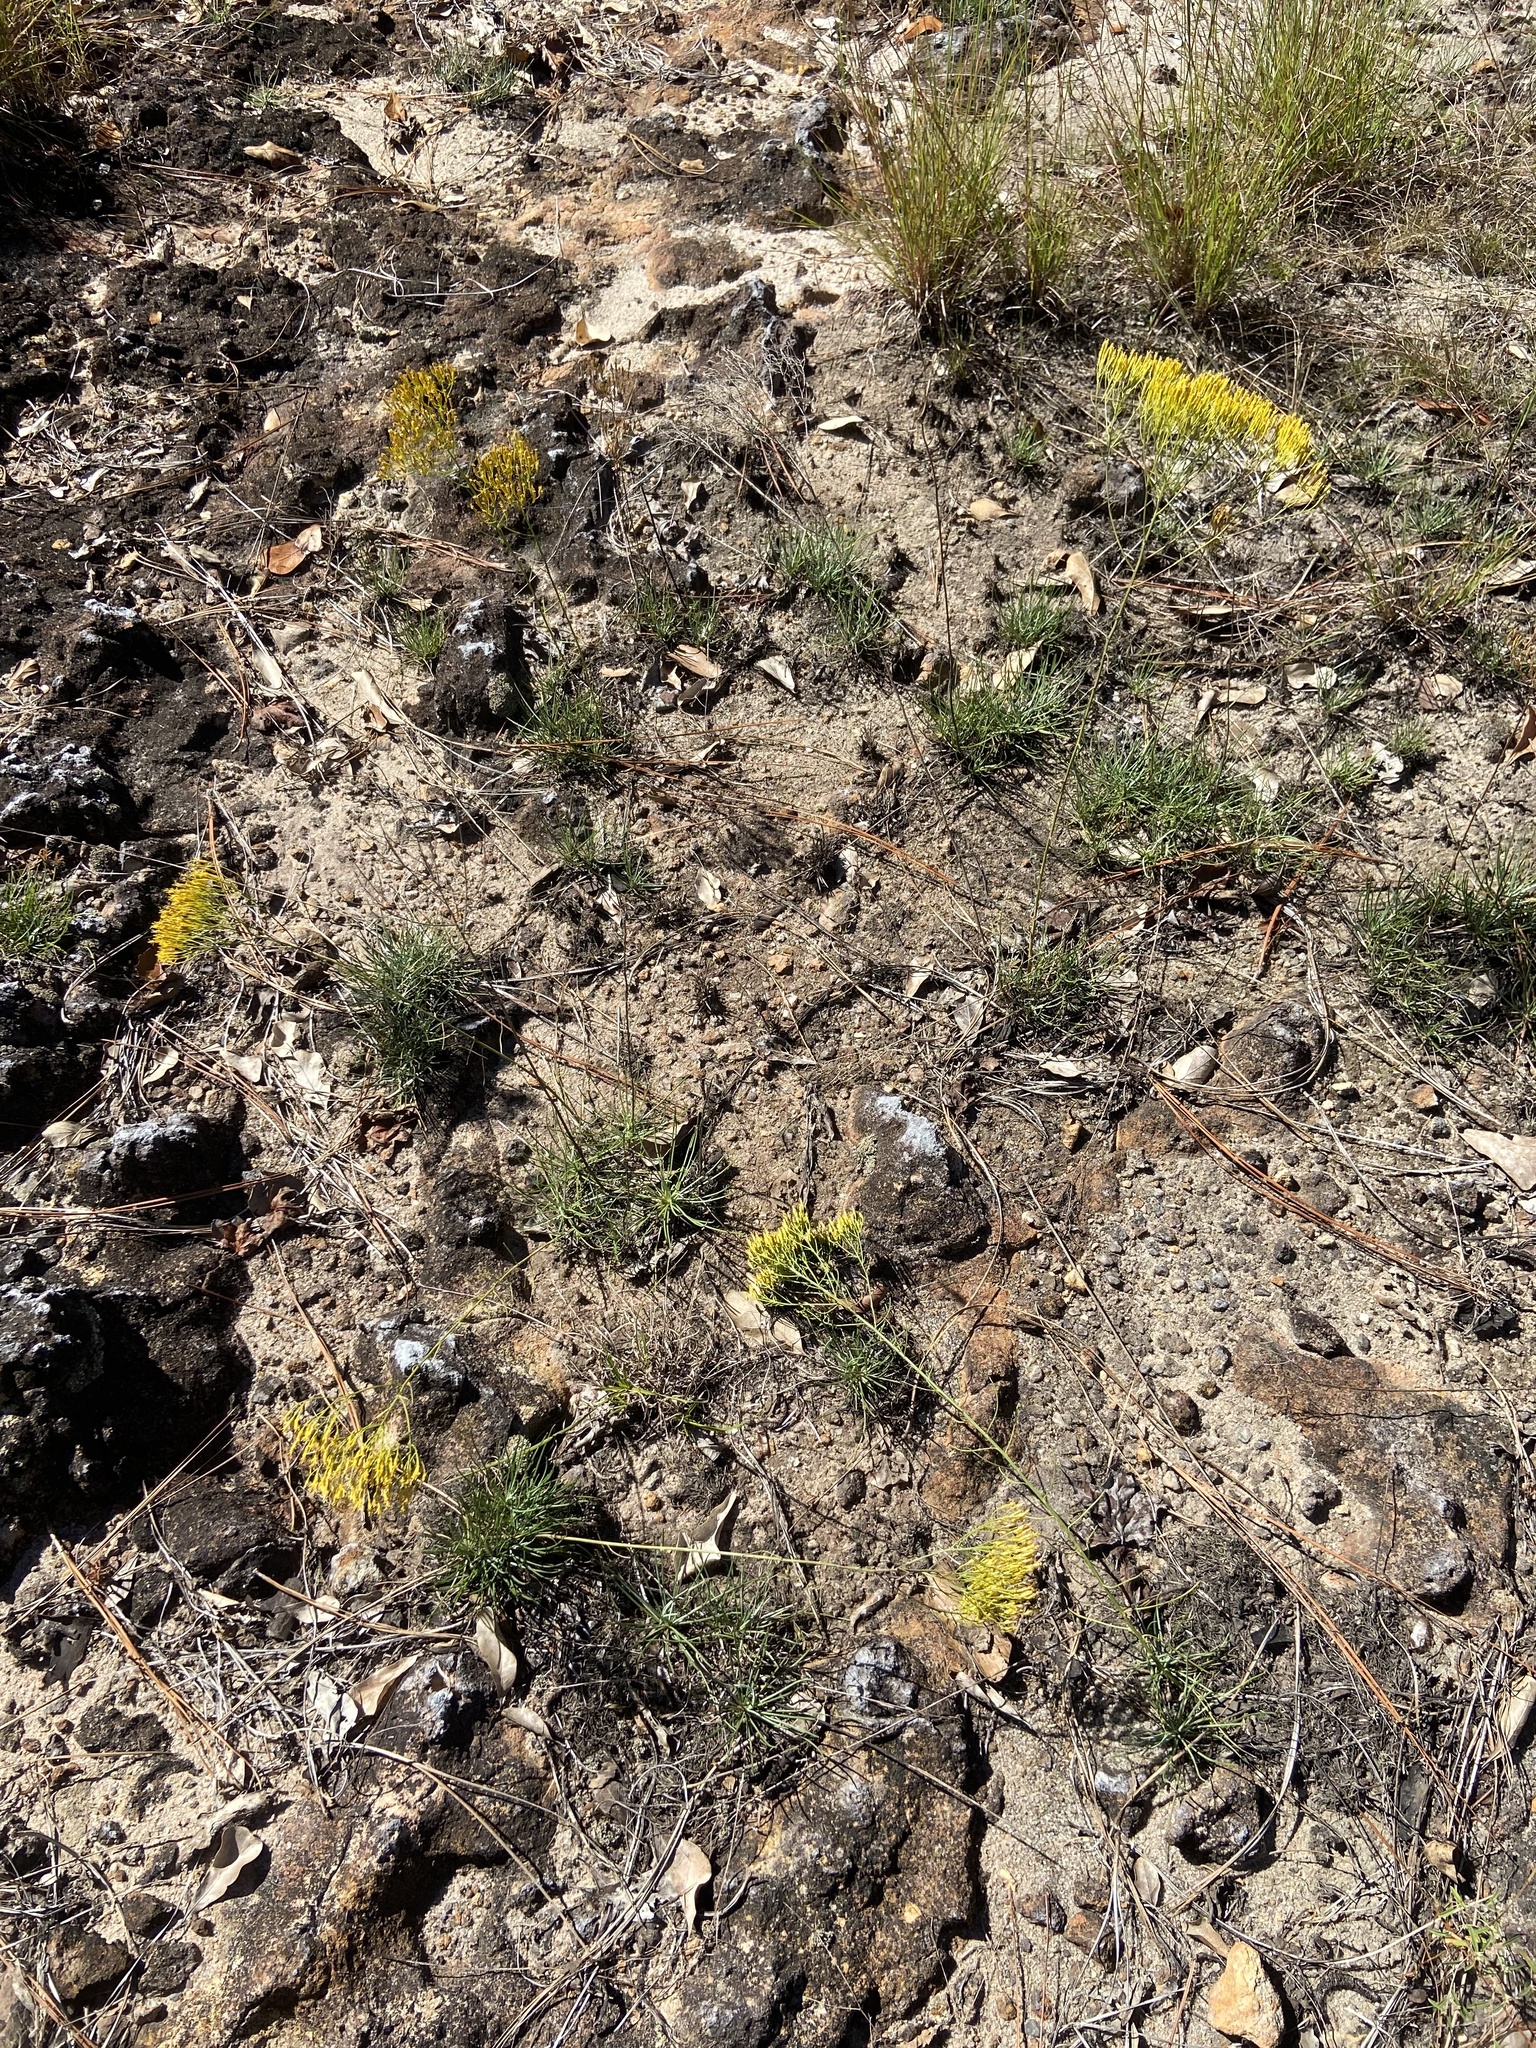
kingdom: Plantae
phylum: Tracheophyta
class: Magnoliopsida
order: Asterales
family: Asteraceae
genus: Bigelowia
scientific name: Bigelowia nuttallii
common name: Nuttall's rayless-goldenrod
